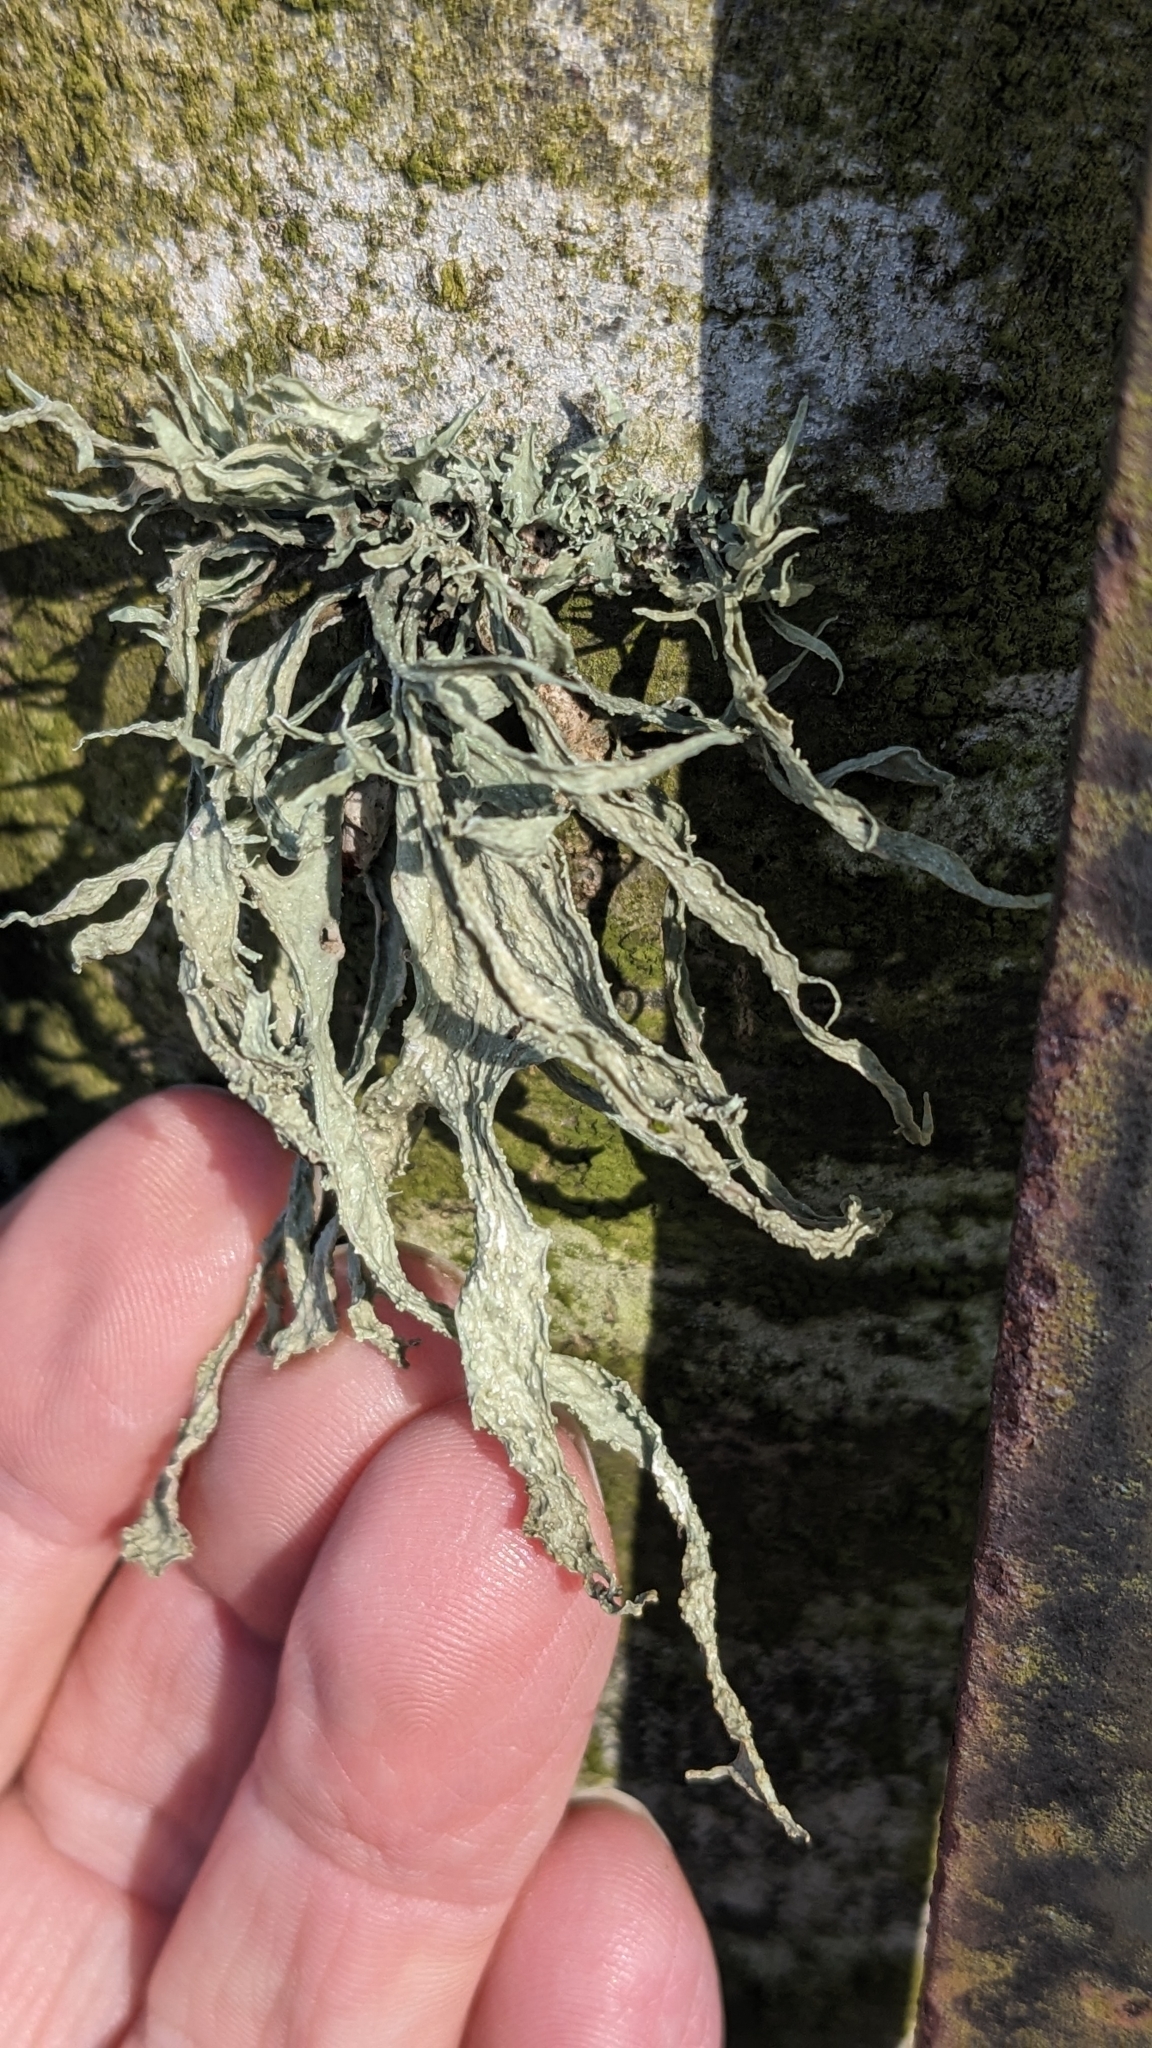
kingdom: Fungi
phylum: Ascomycota
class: Lecanoromycetes
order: Lecanorales
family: Ramalinaceae
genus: Ramalina
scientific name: Ramalina fraxinea
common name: Cartilage lichen
